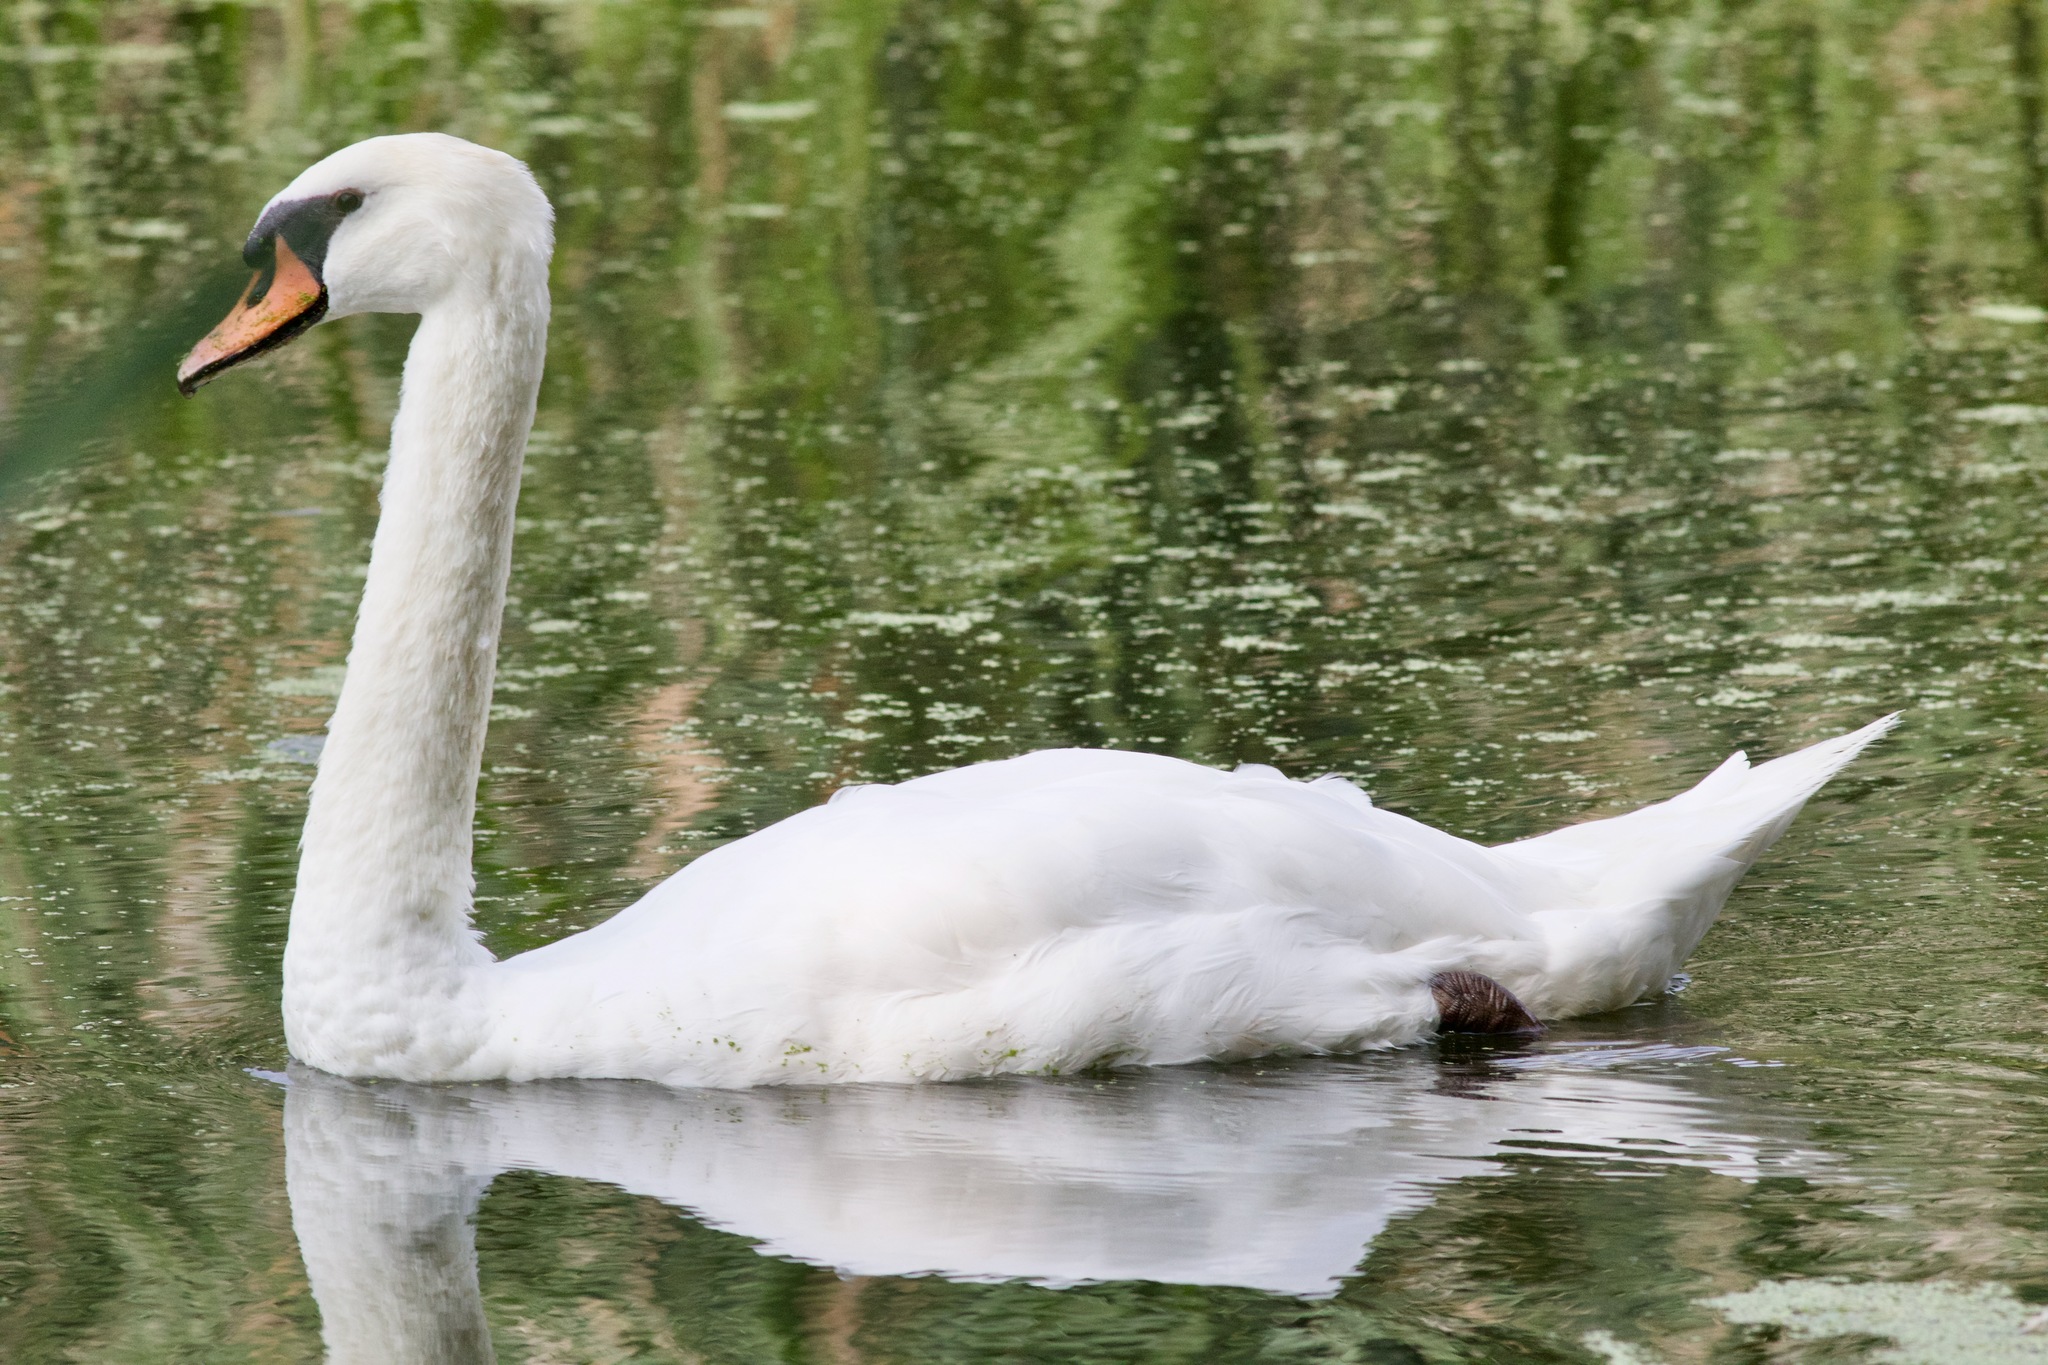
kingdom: Animalia
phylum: Chordata
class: Aves
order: Anseriformes
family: Anatidae
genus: Cygnus
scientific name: Cygnus olor
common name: Mute swan
